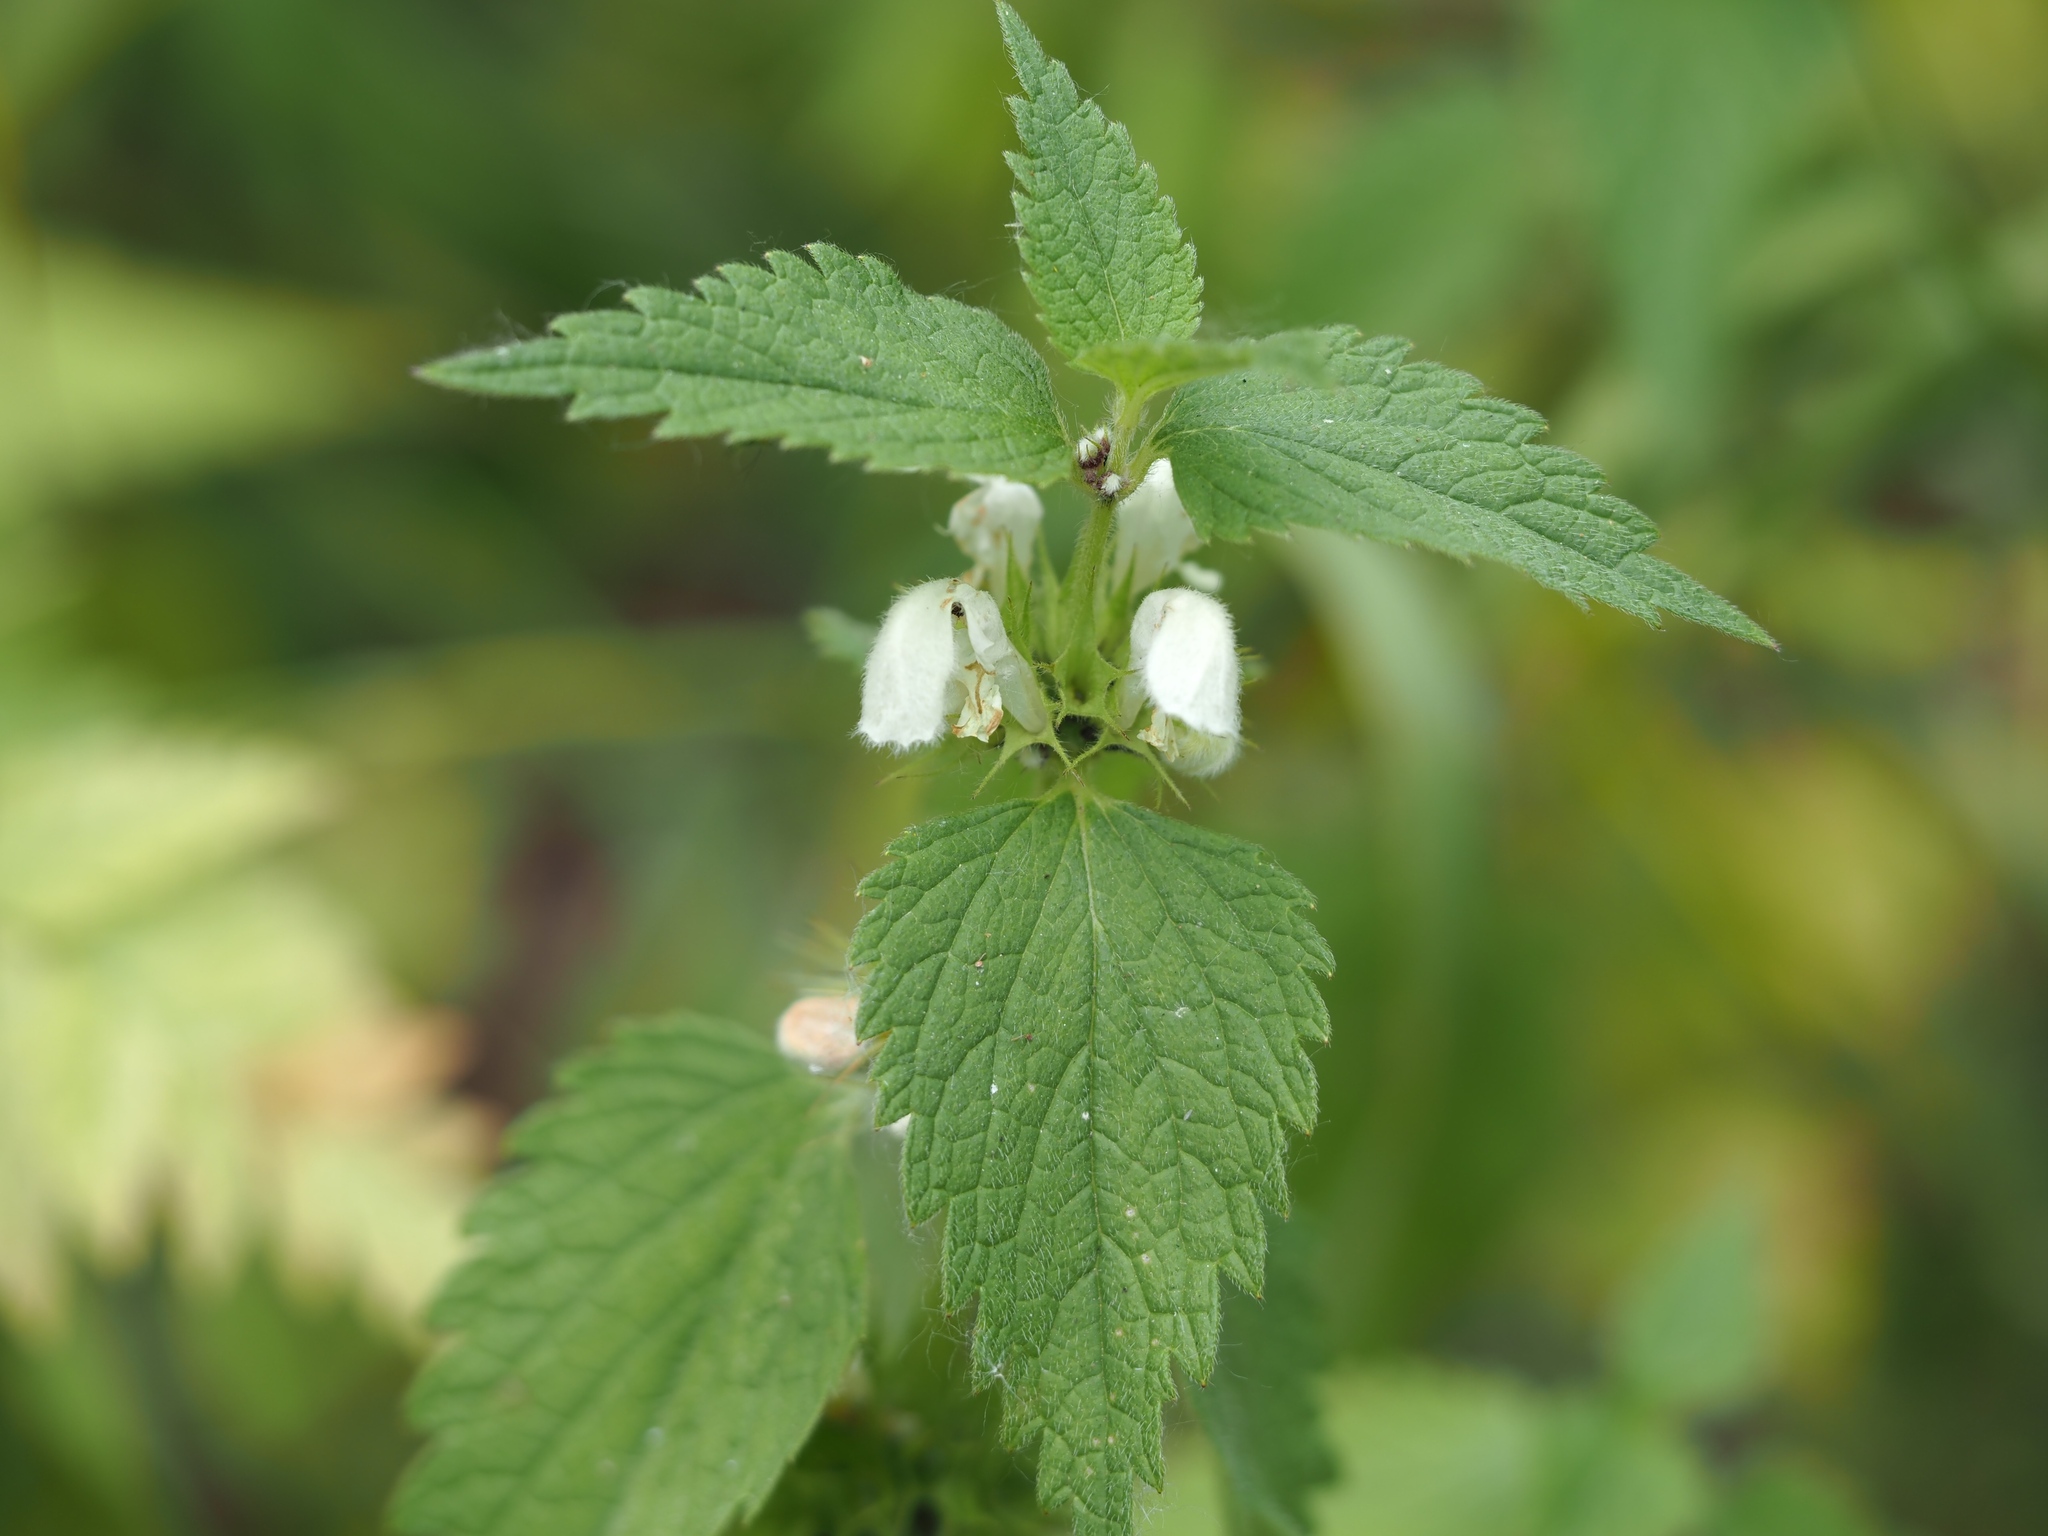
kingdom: Plantae
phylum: Tracheophyta
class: Magnoliopsida
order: Lamiales
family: Lamiaceae
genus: Lamium
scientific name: Lamium album
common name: White dead-nettle
